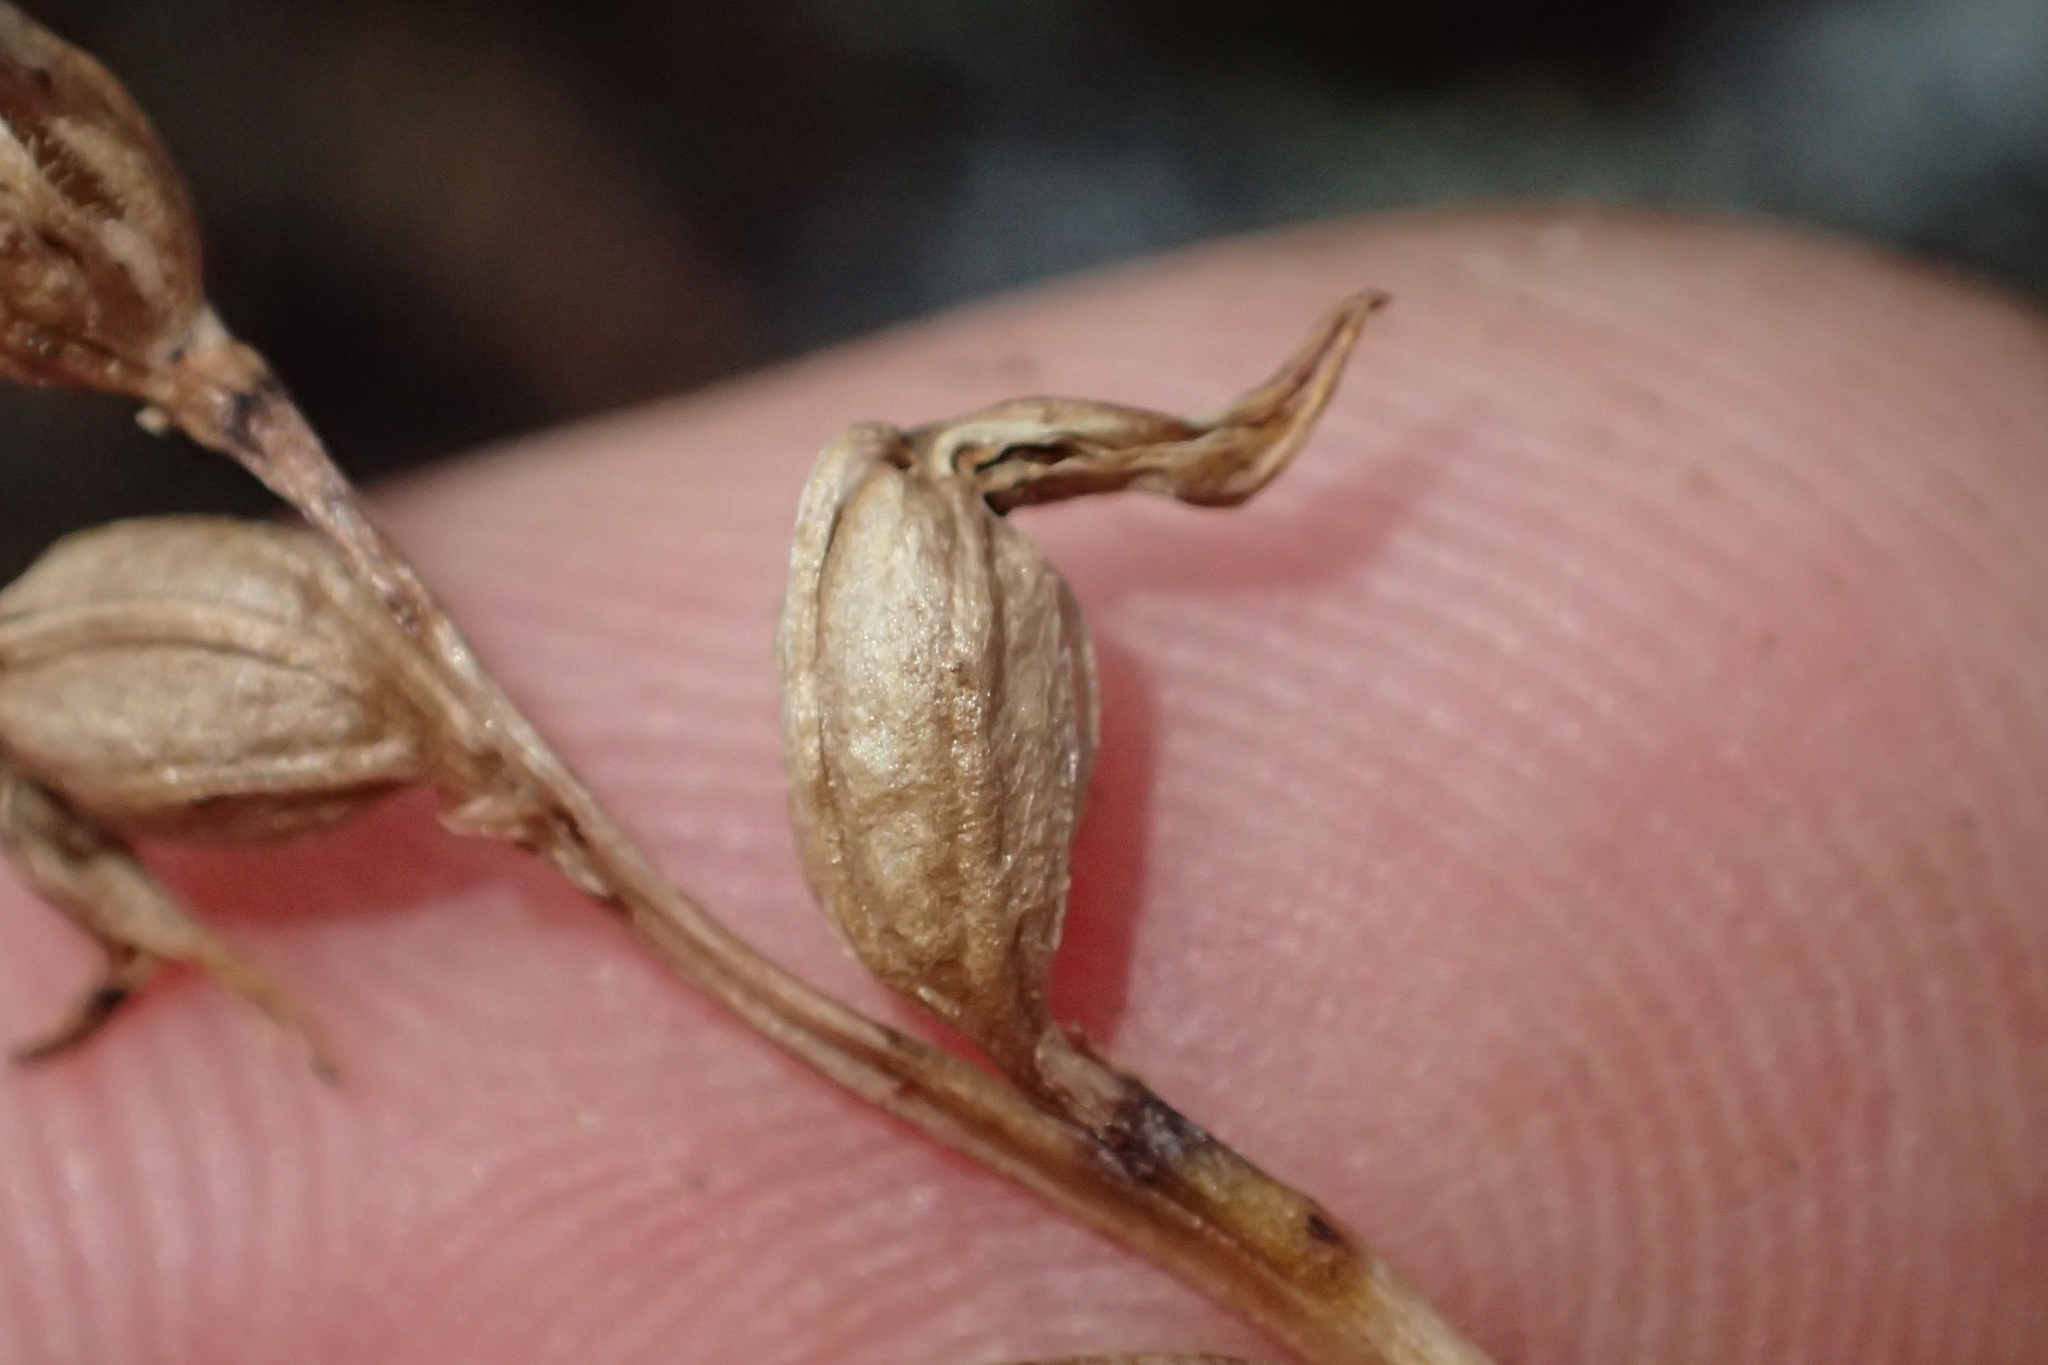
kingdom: Plantae
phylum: Tracheophyta
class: Liliopsida
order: Asparagales
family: Orchidaceae
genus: Prasophyllum
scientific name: Prasophyllum colensoi
